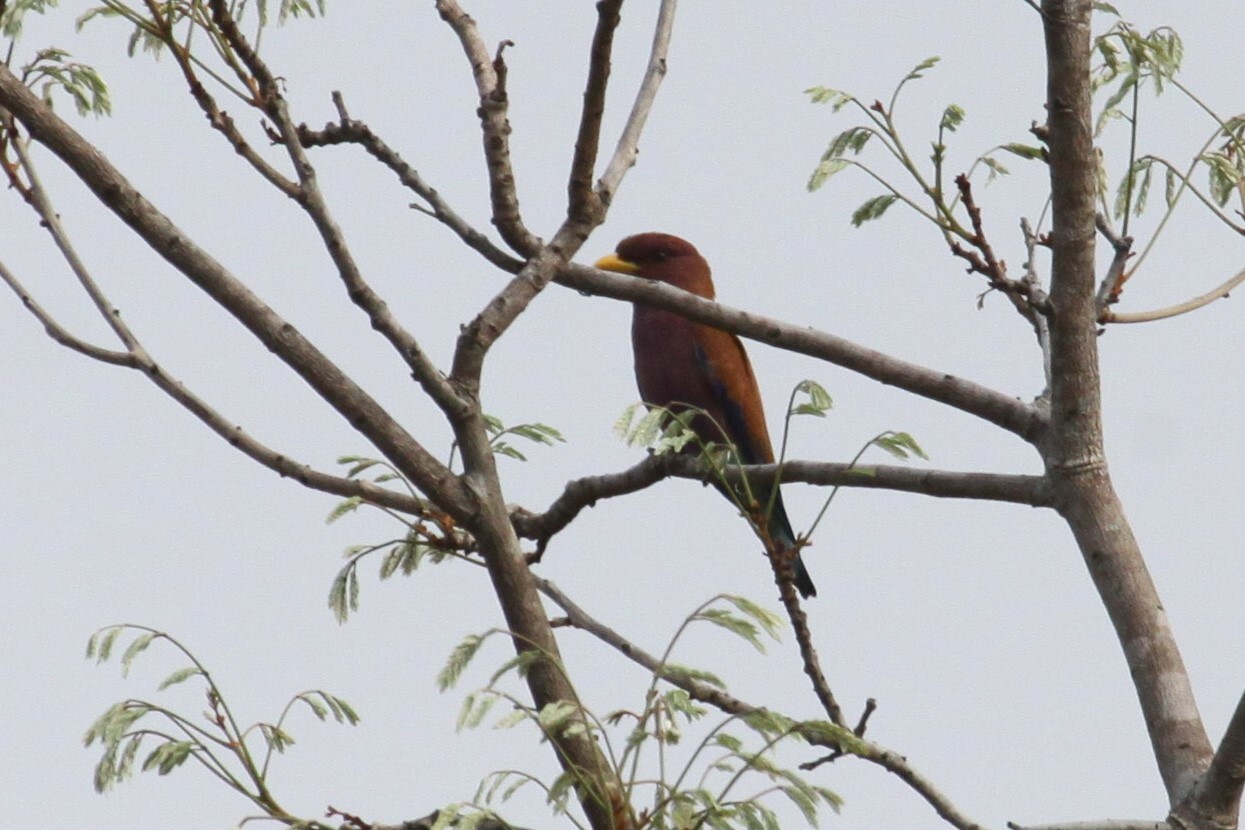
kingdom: Animalia
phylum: Chordata
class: Aves
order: Coraciiformes
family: Coraciidae
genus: Eurystomus
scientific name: Eurystomus glaucurus
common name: Broad-billed roller
